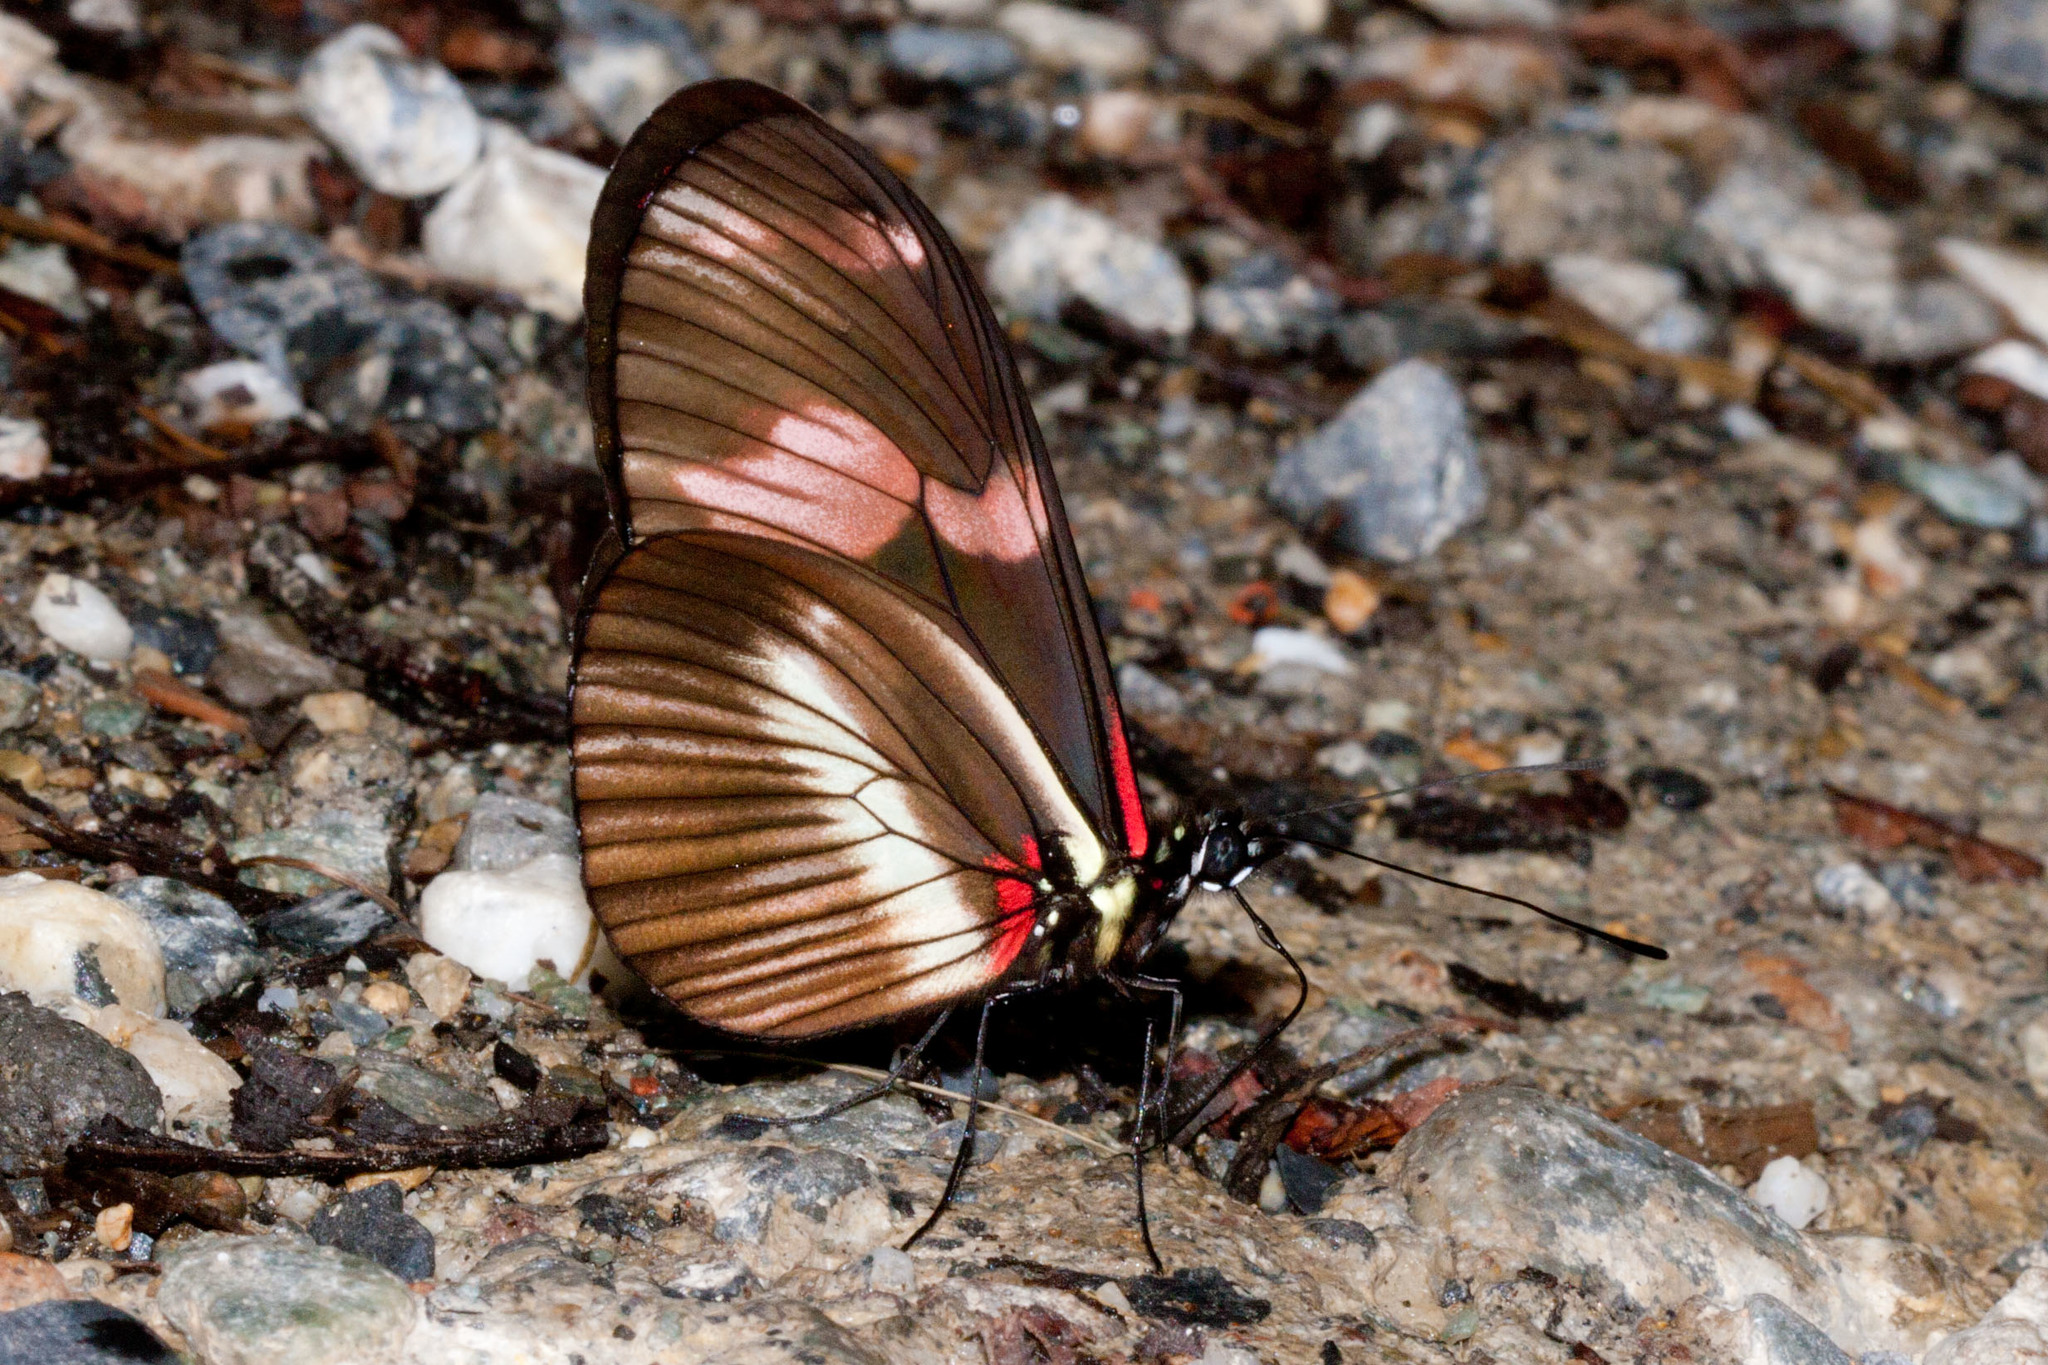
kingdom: Animalia
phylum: Arthropoda
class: Insecta
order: Lepidoptera
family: Nymphalidae
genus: Heliconius
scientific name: Heliconius telesiphe
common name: Telesiphe longwing
